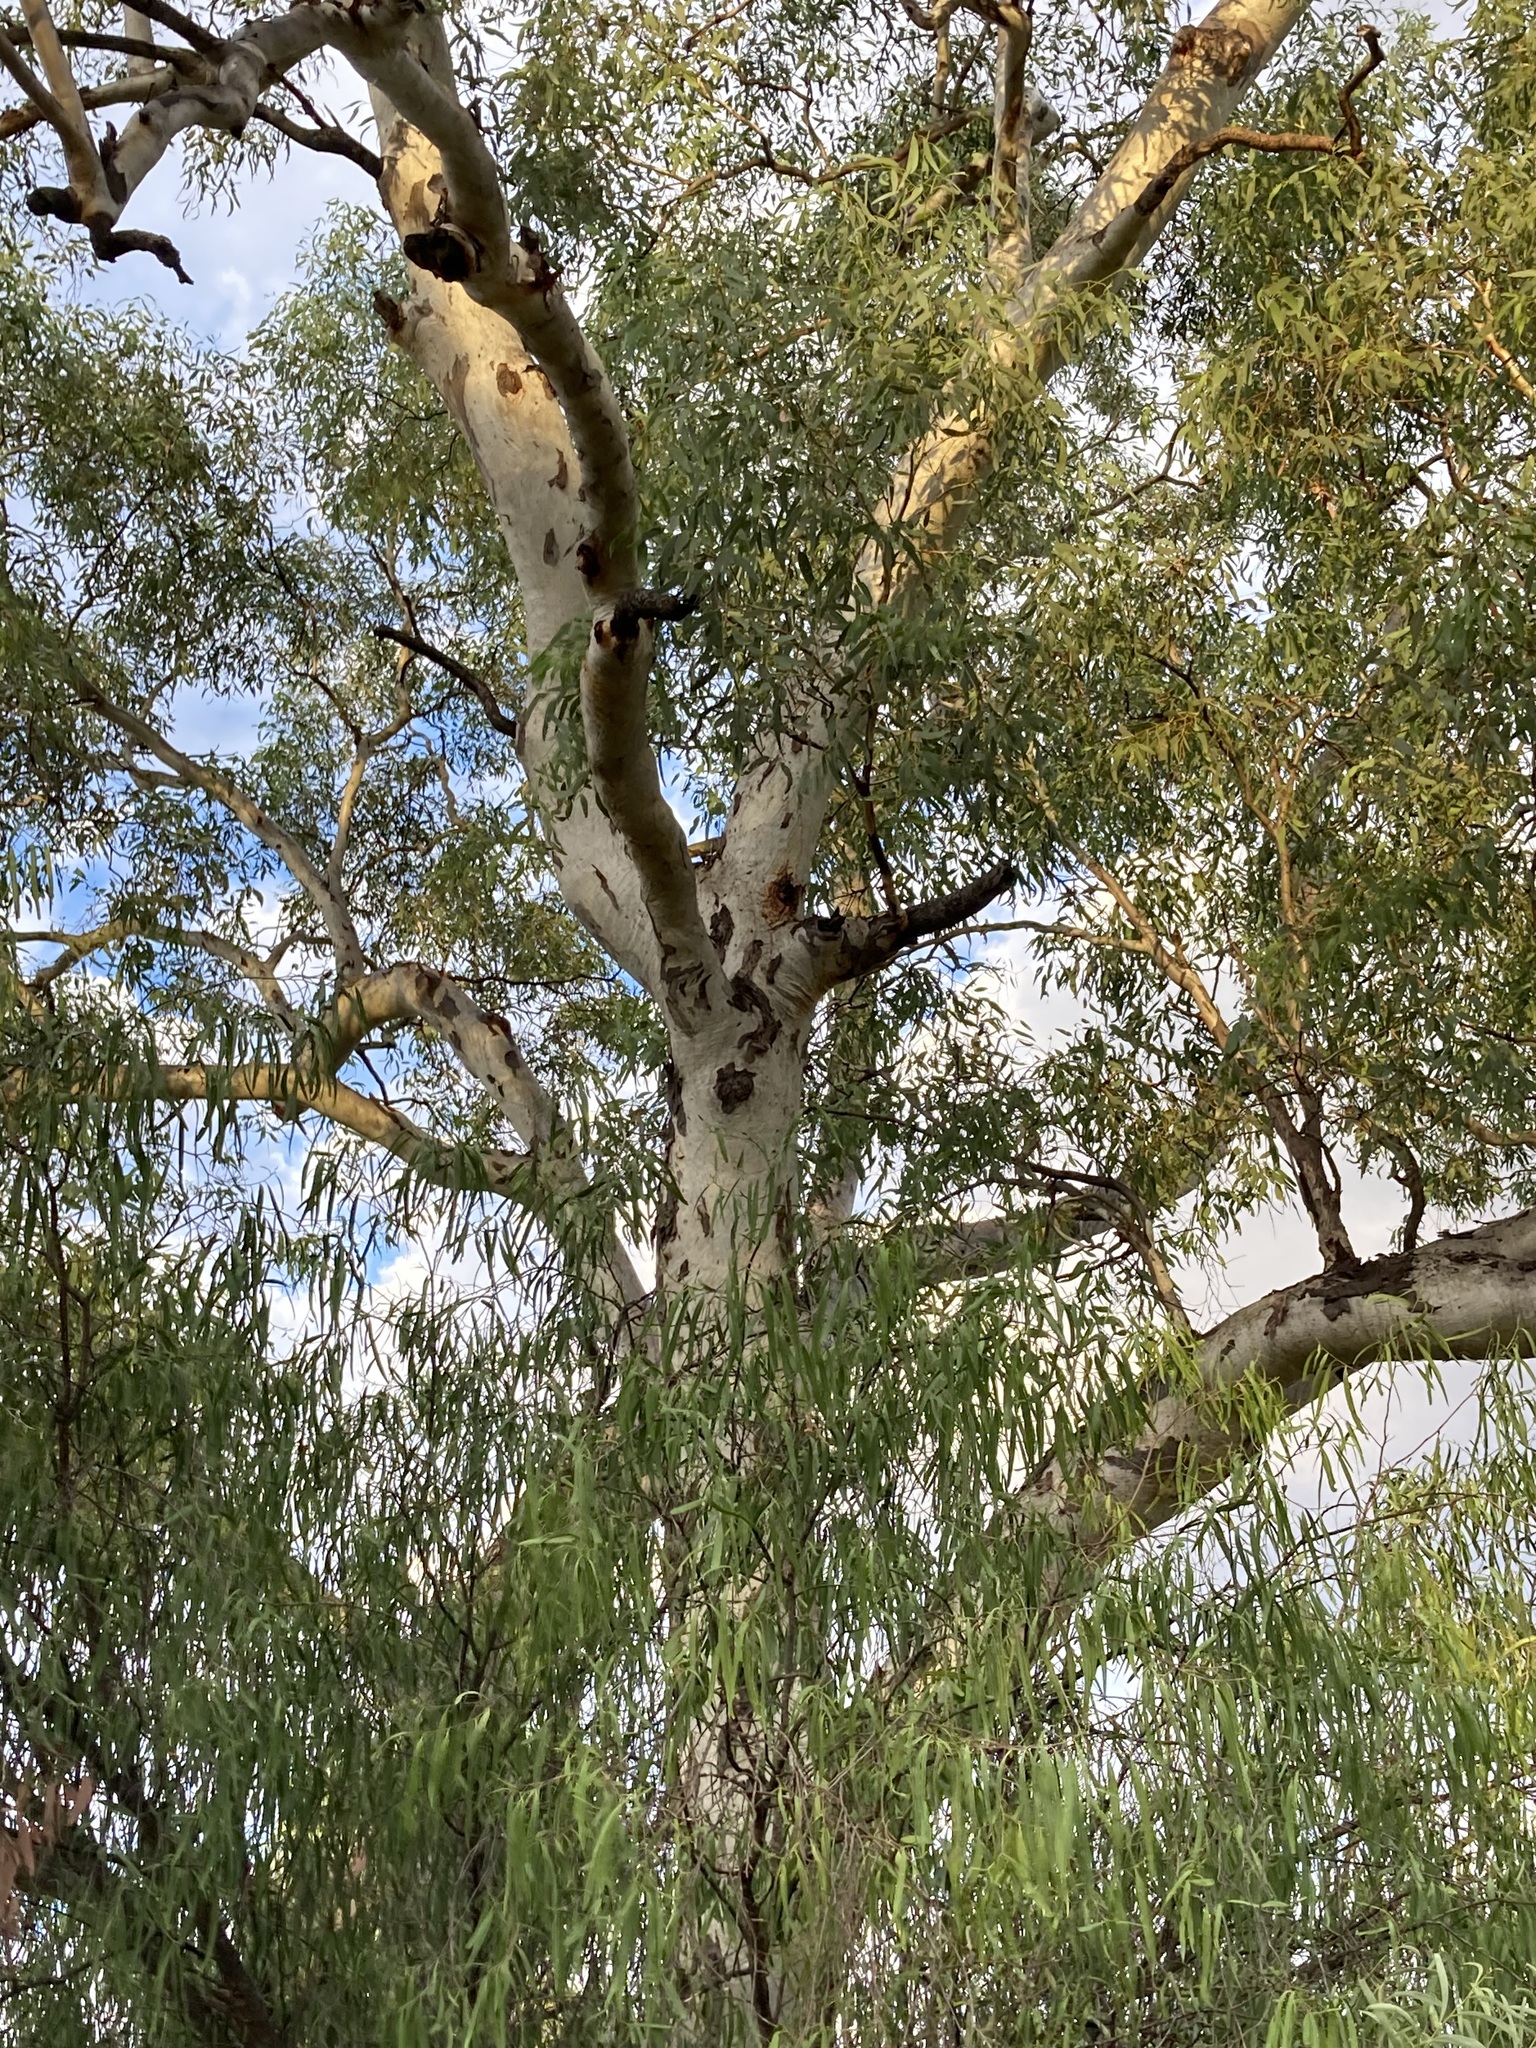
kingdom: Plantae
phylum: Tracheophyta
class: Magnoliopsida
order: Myrtales
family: Myrtaceae
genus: Eucalyptus
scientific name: Eucalyptus intertexta
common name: Bastard coolibah
